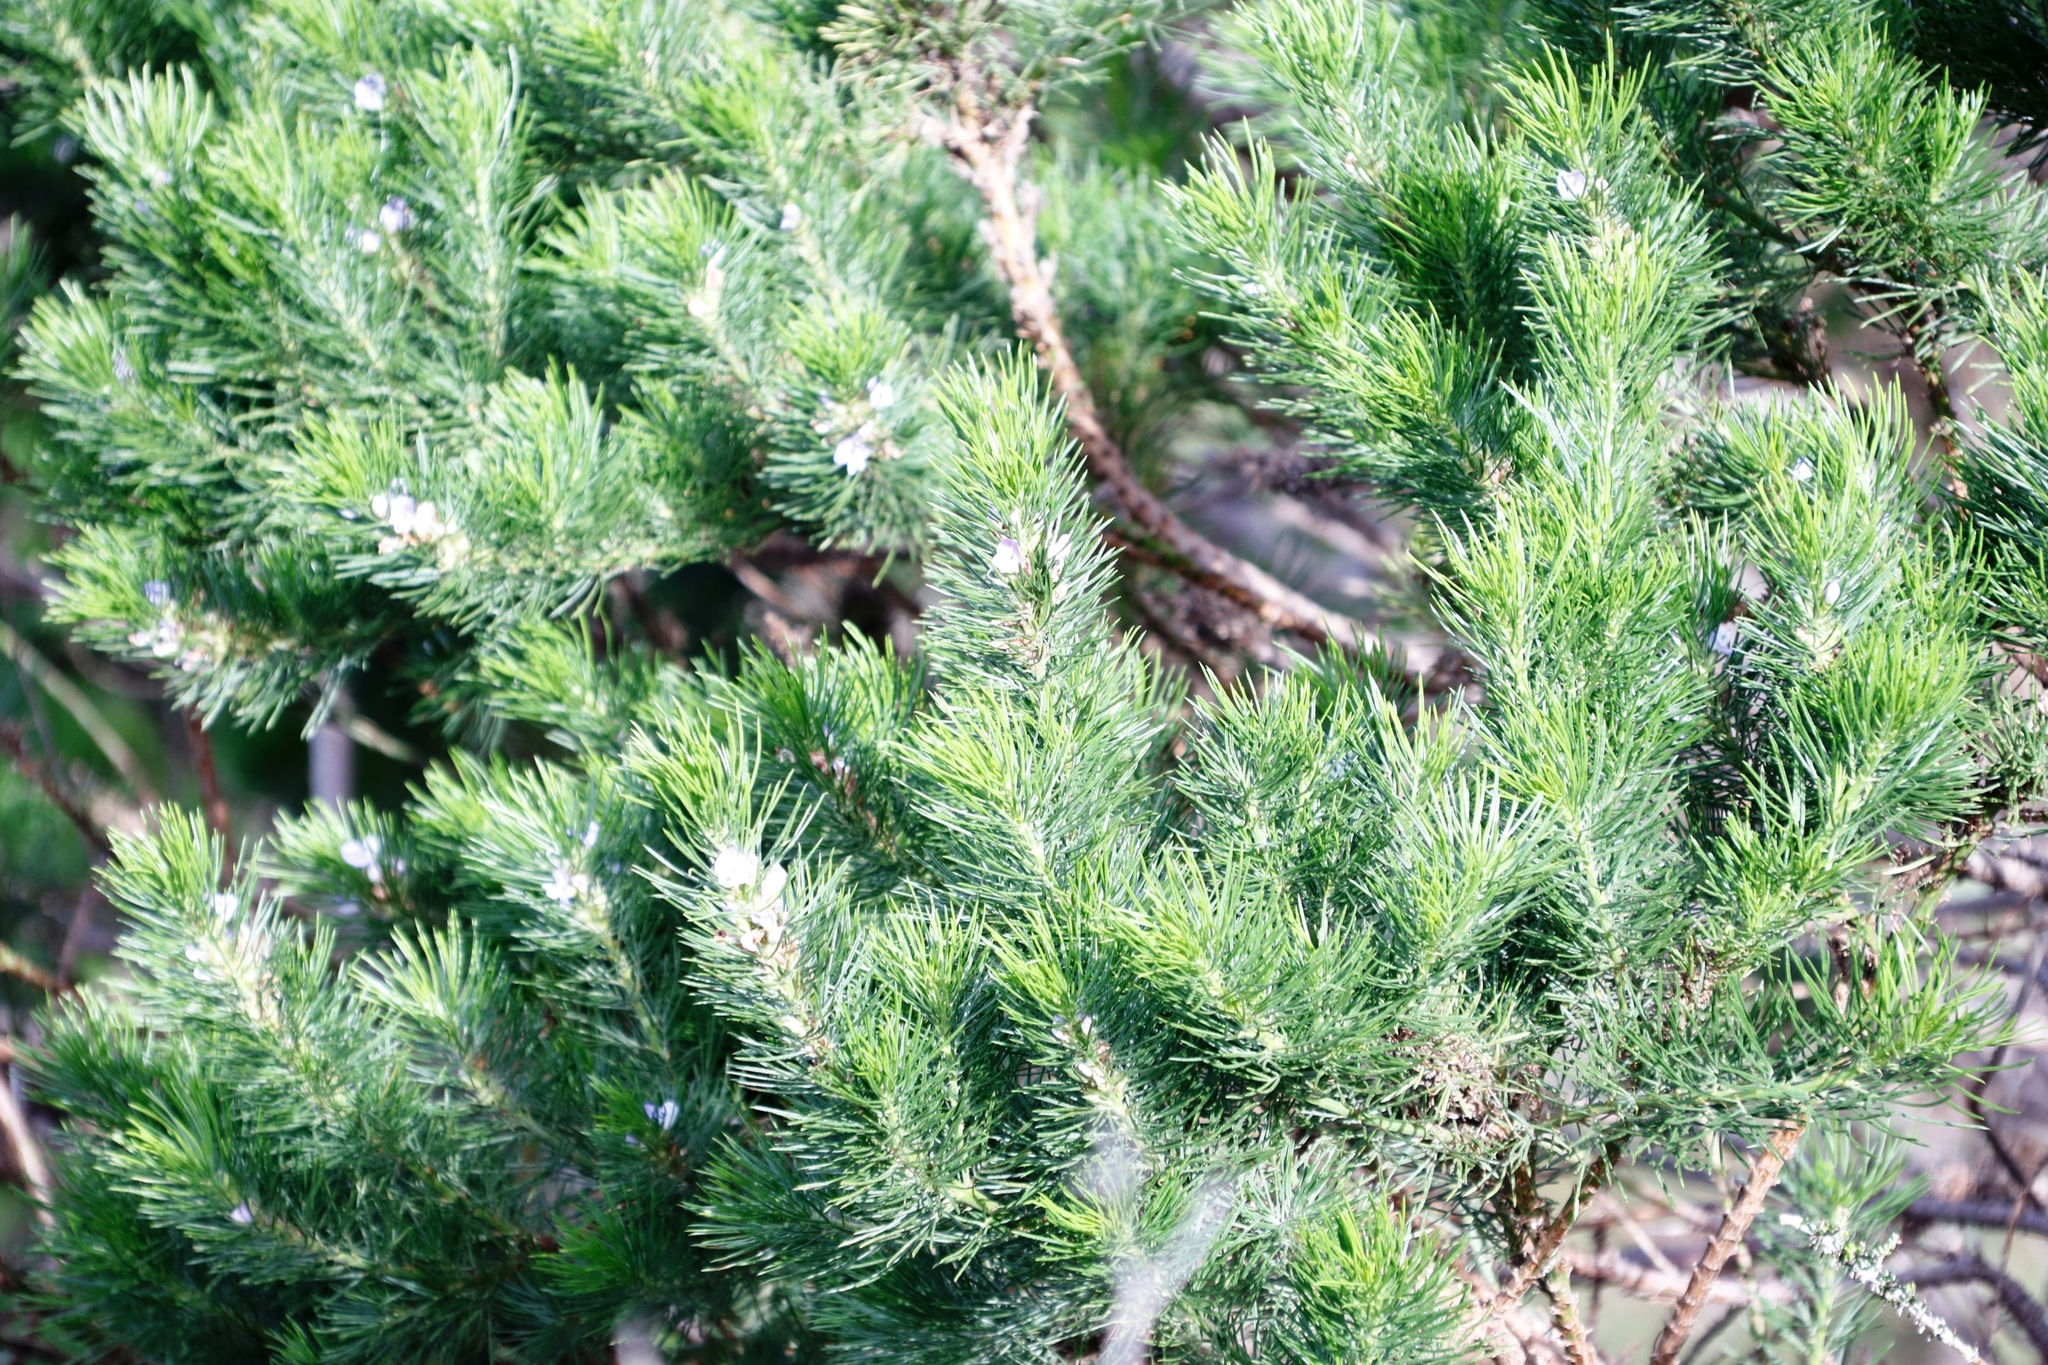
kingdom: Plantae
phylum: Tracheophyta
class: Magnoliopsida
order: Fabales
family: Fabaceae
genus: Psoralea
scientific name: Psoralea pinnata
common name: African scurfpea
